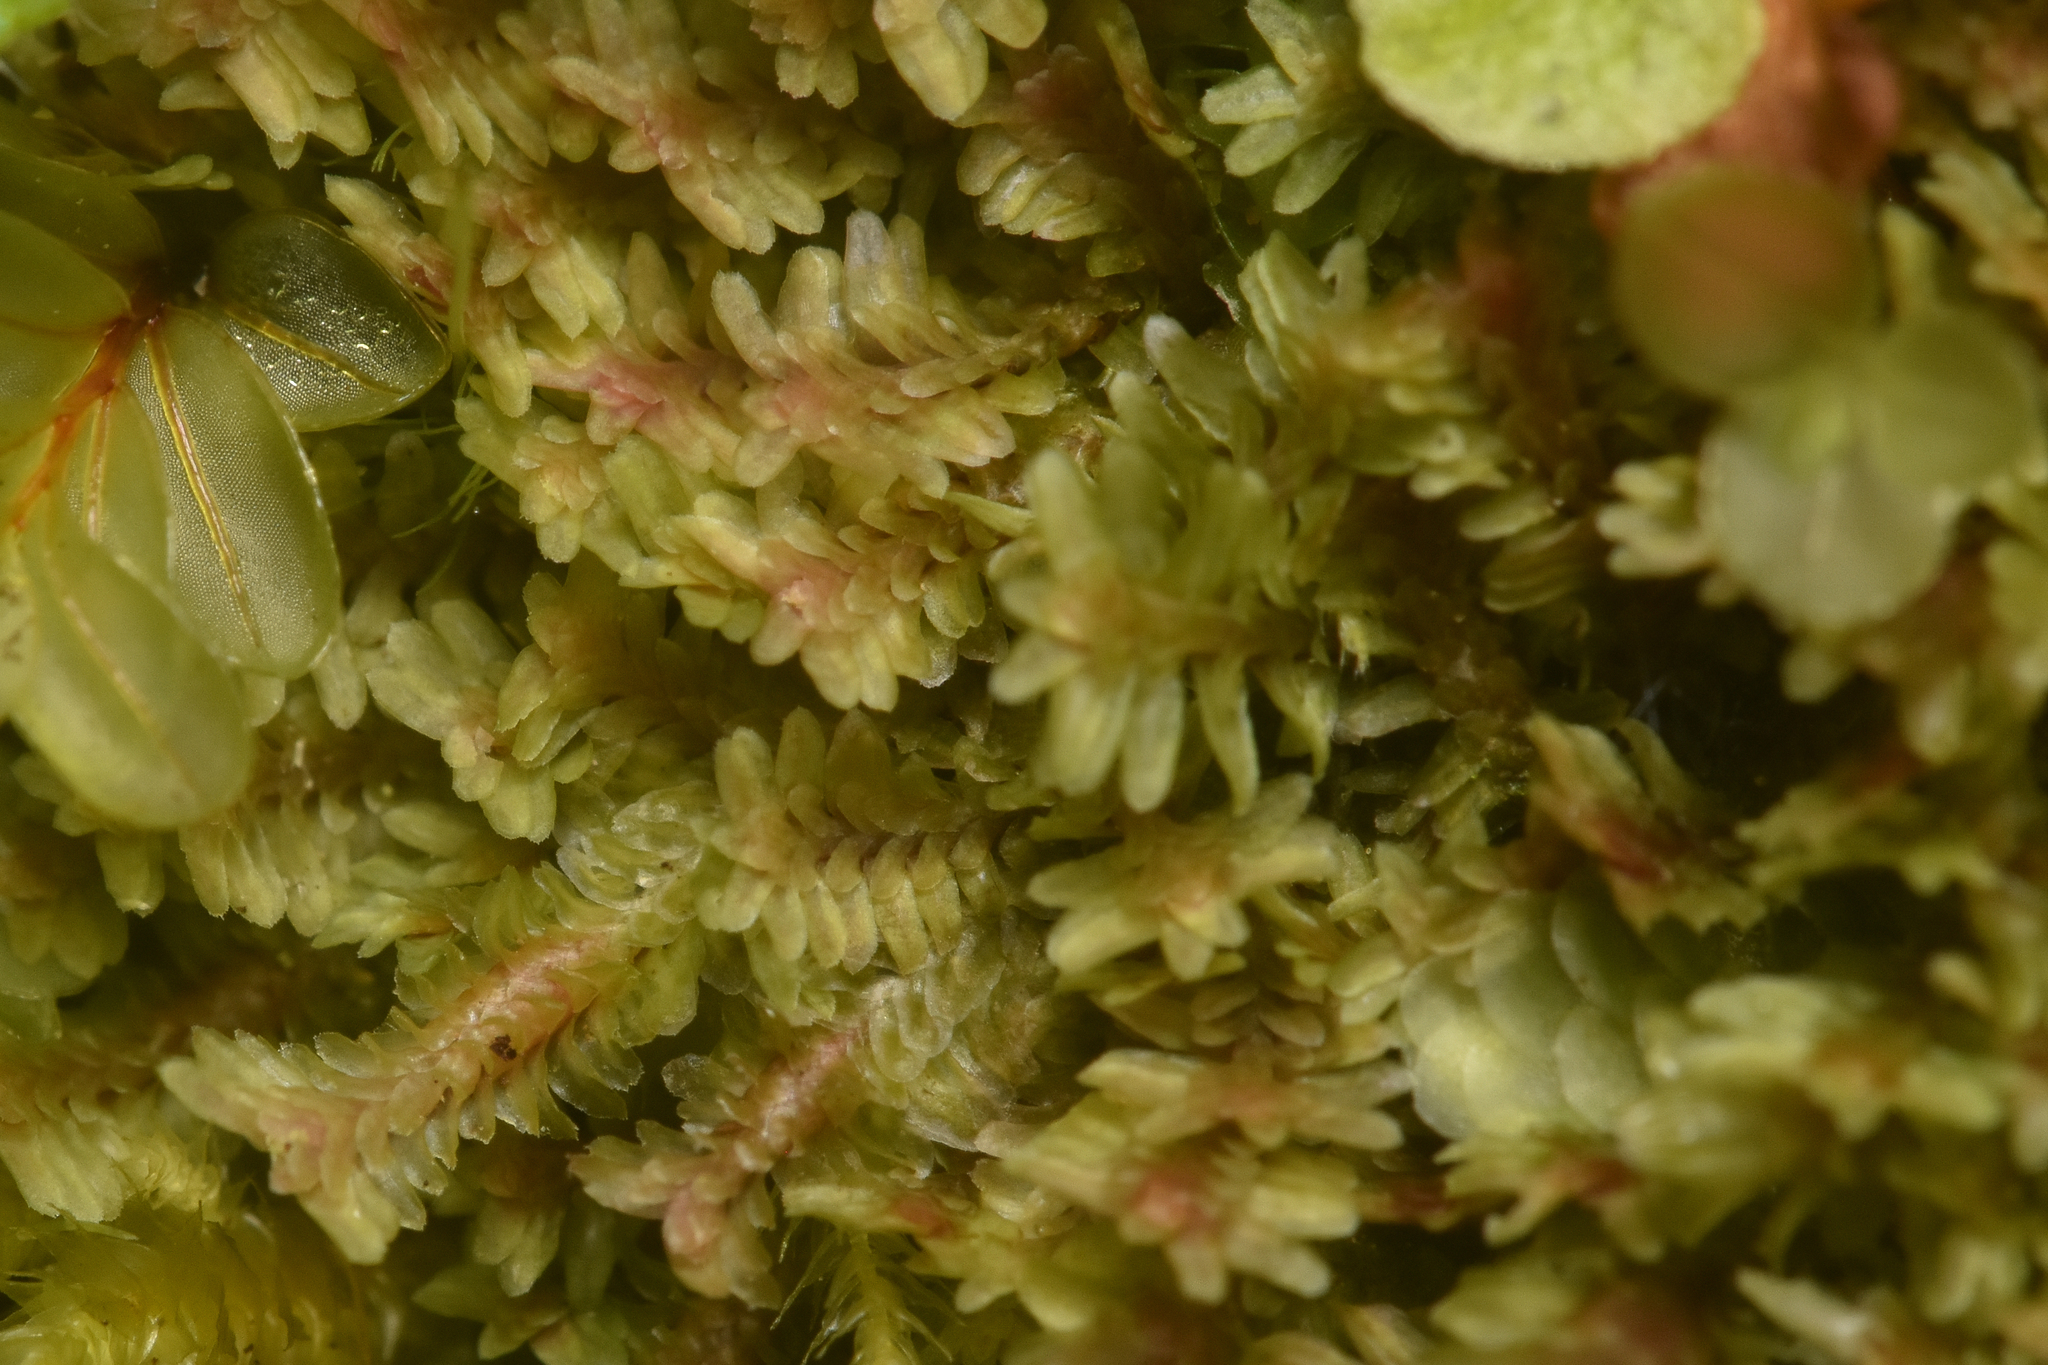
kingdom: Plantae
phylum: Marchantiophyta
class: Jungermanniopsida
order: Jungermanniales
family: Scapaniaceae
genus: Diplophyllum
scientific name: Diplophyllum albicans
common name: White earwort
